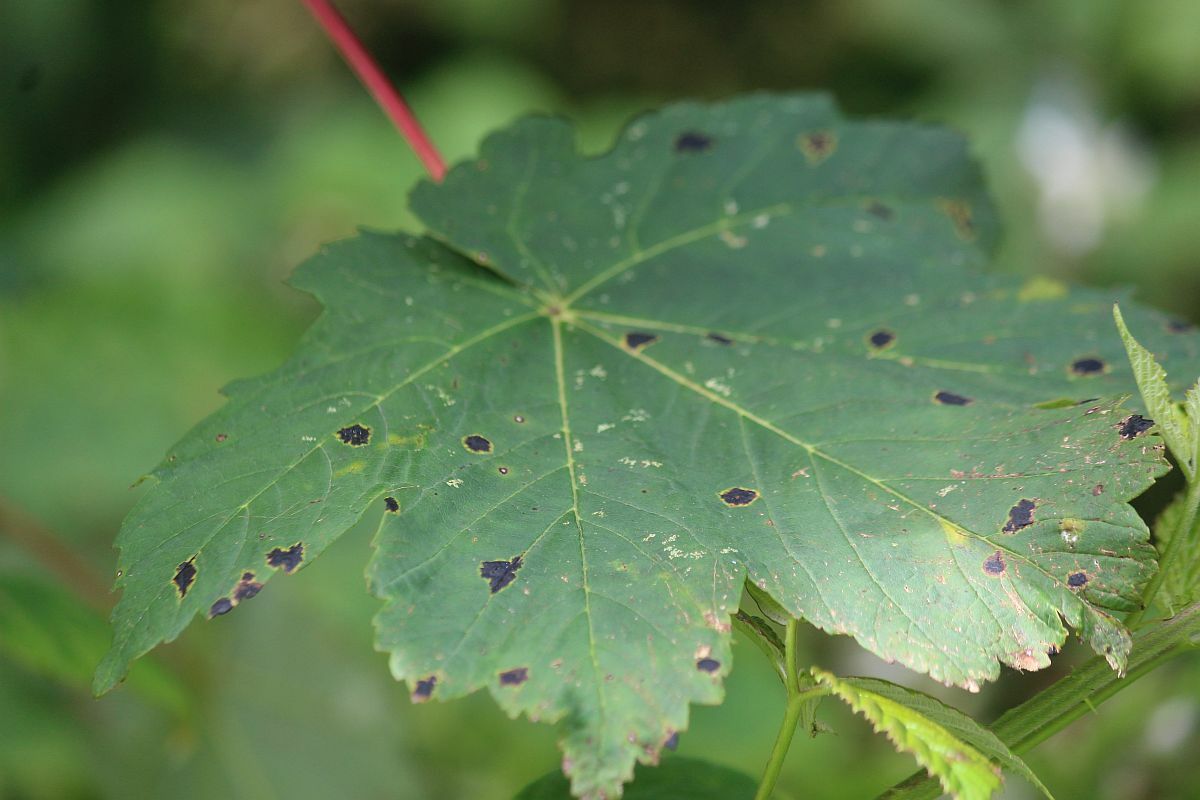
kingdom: Plantae
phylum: Tracheophyta
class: Magnoliopsida
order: Sapindales
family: Sapindaceae
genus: Acer
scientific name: Acer pseudoplatanus
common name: Sycamore
